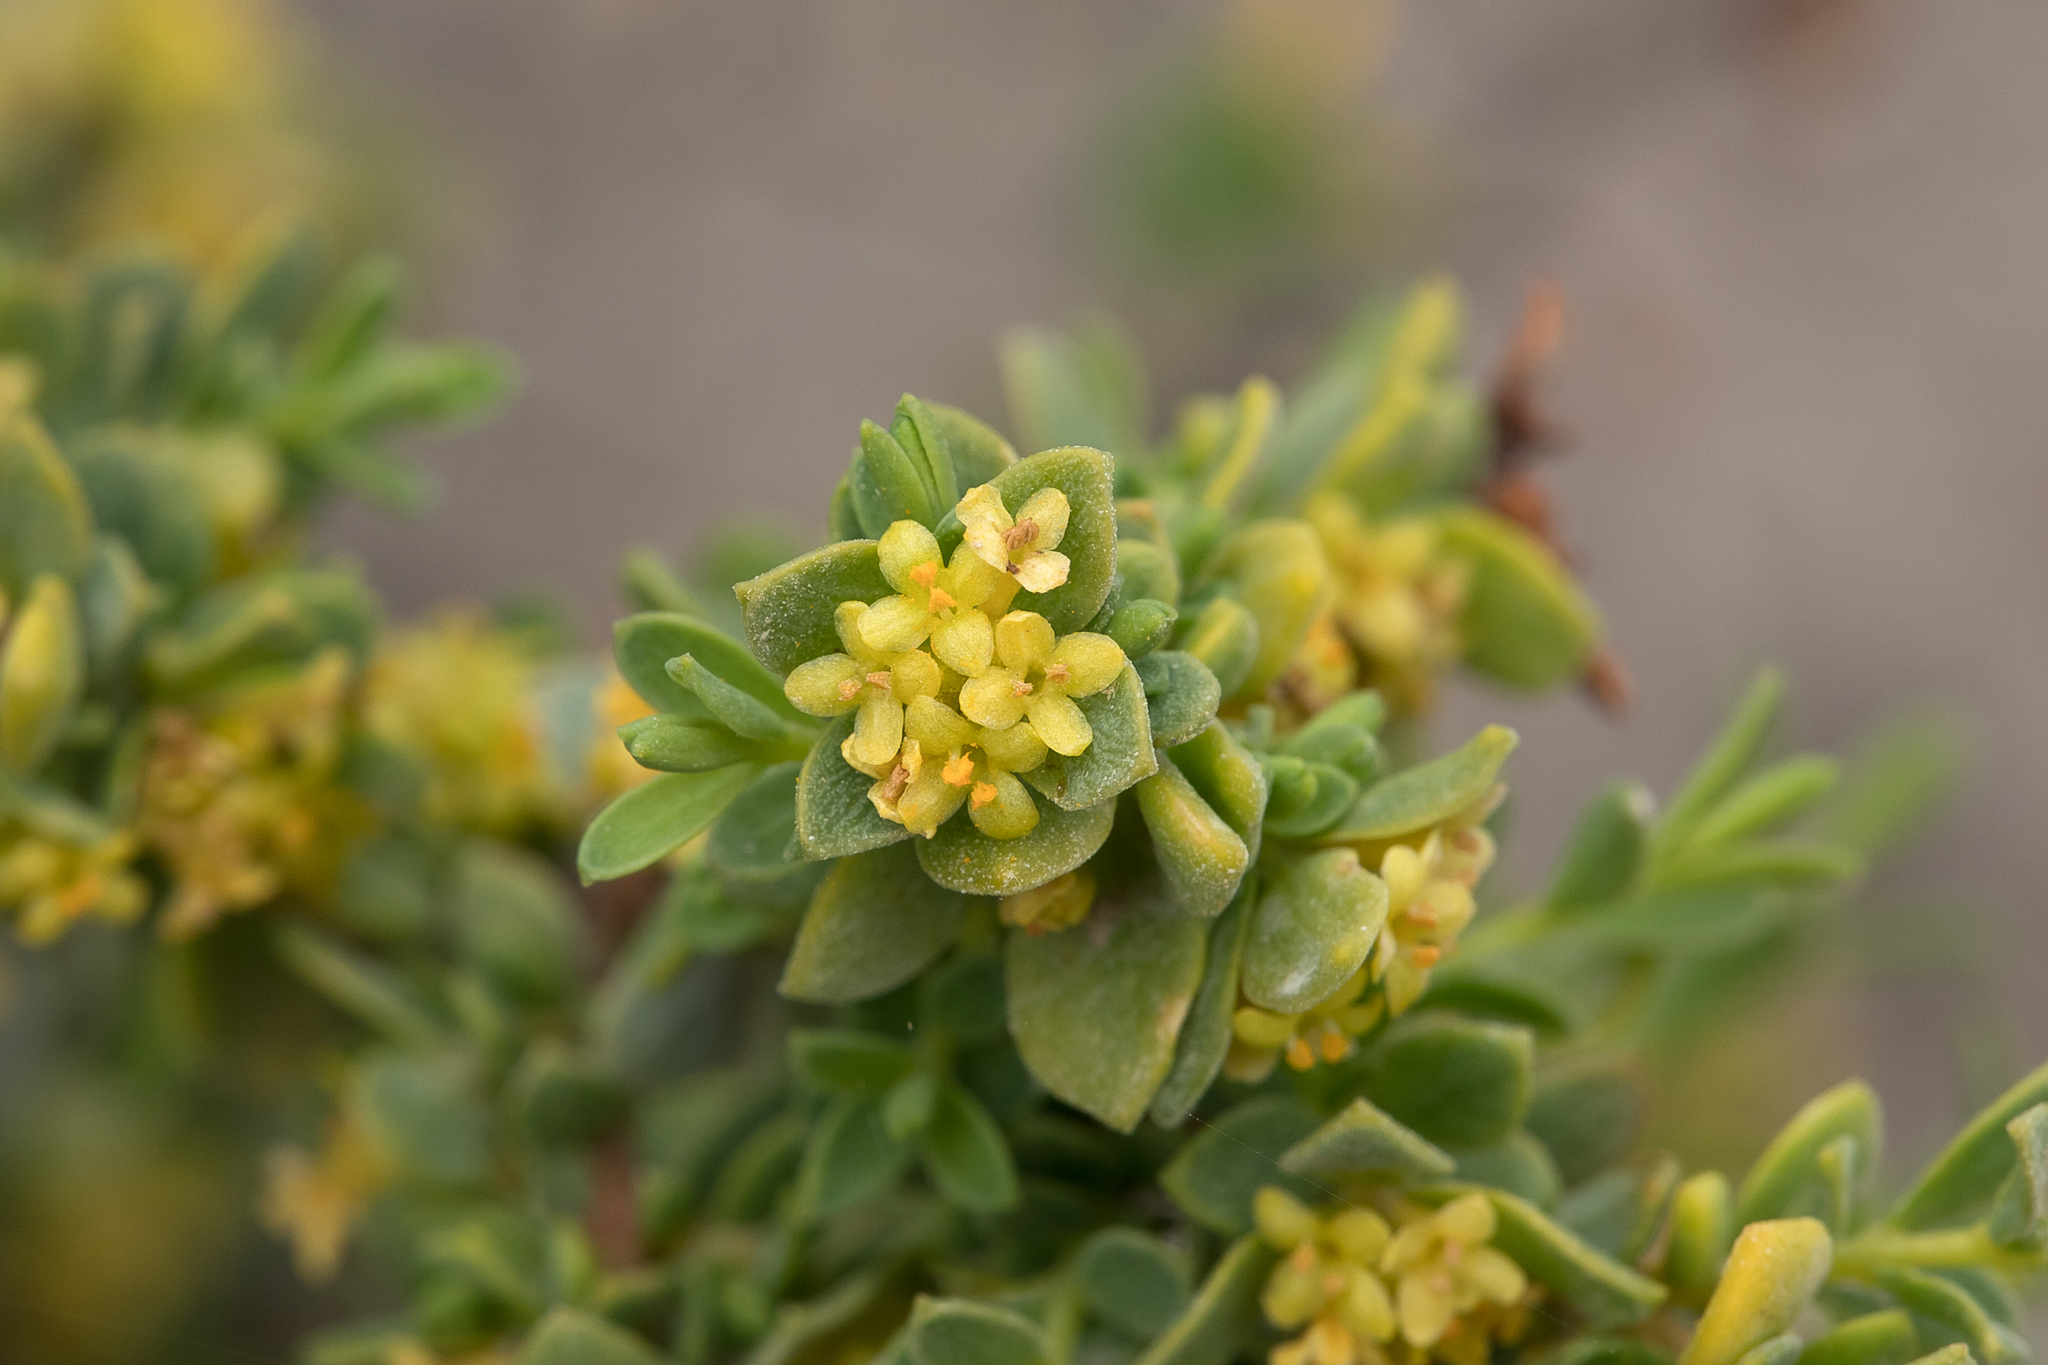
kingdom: Plantae
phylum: Tracheophyta
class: Magnoliopsida
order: Malvales
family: Thymelaeaceae
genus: Pimelea
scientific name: Pimelea serpyllifolia
